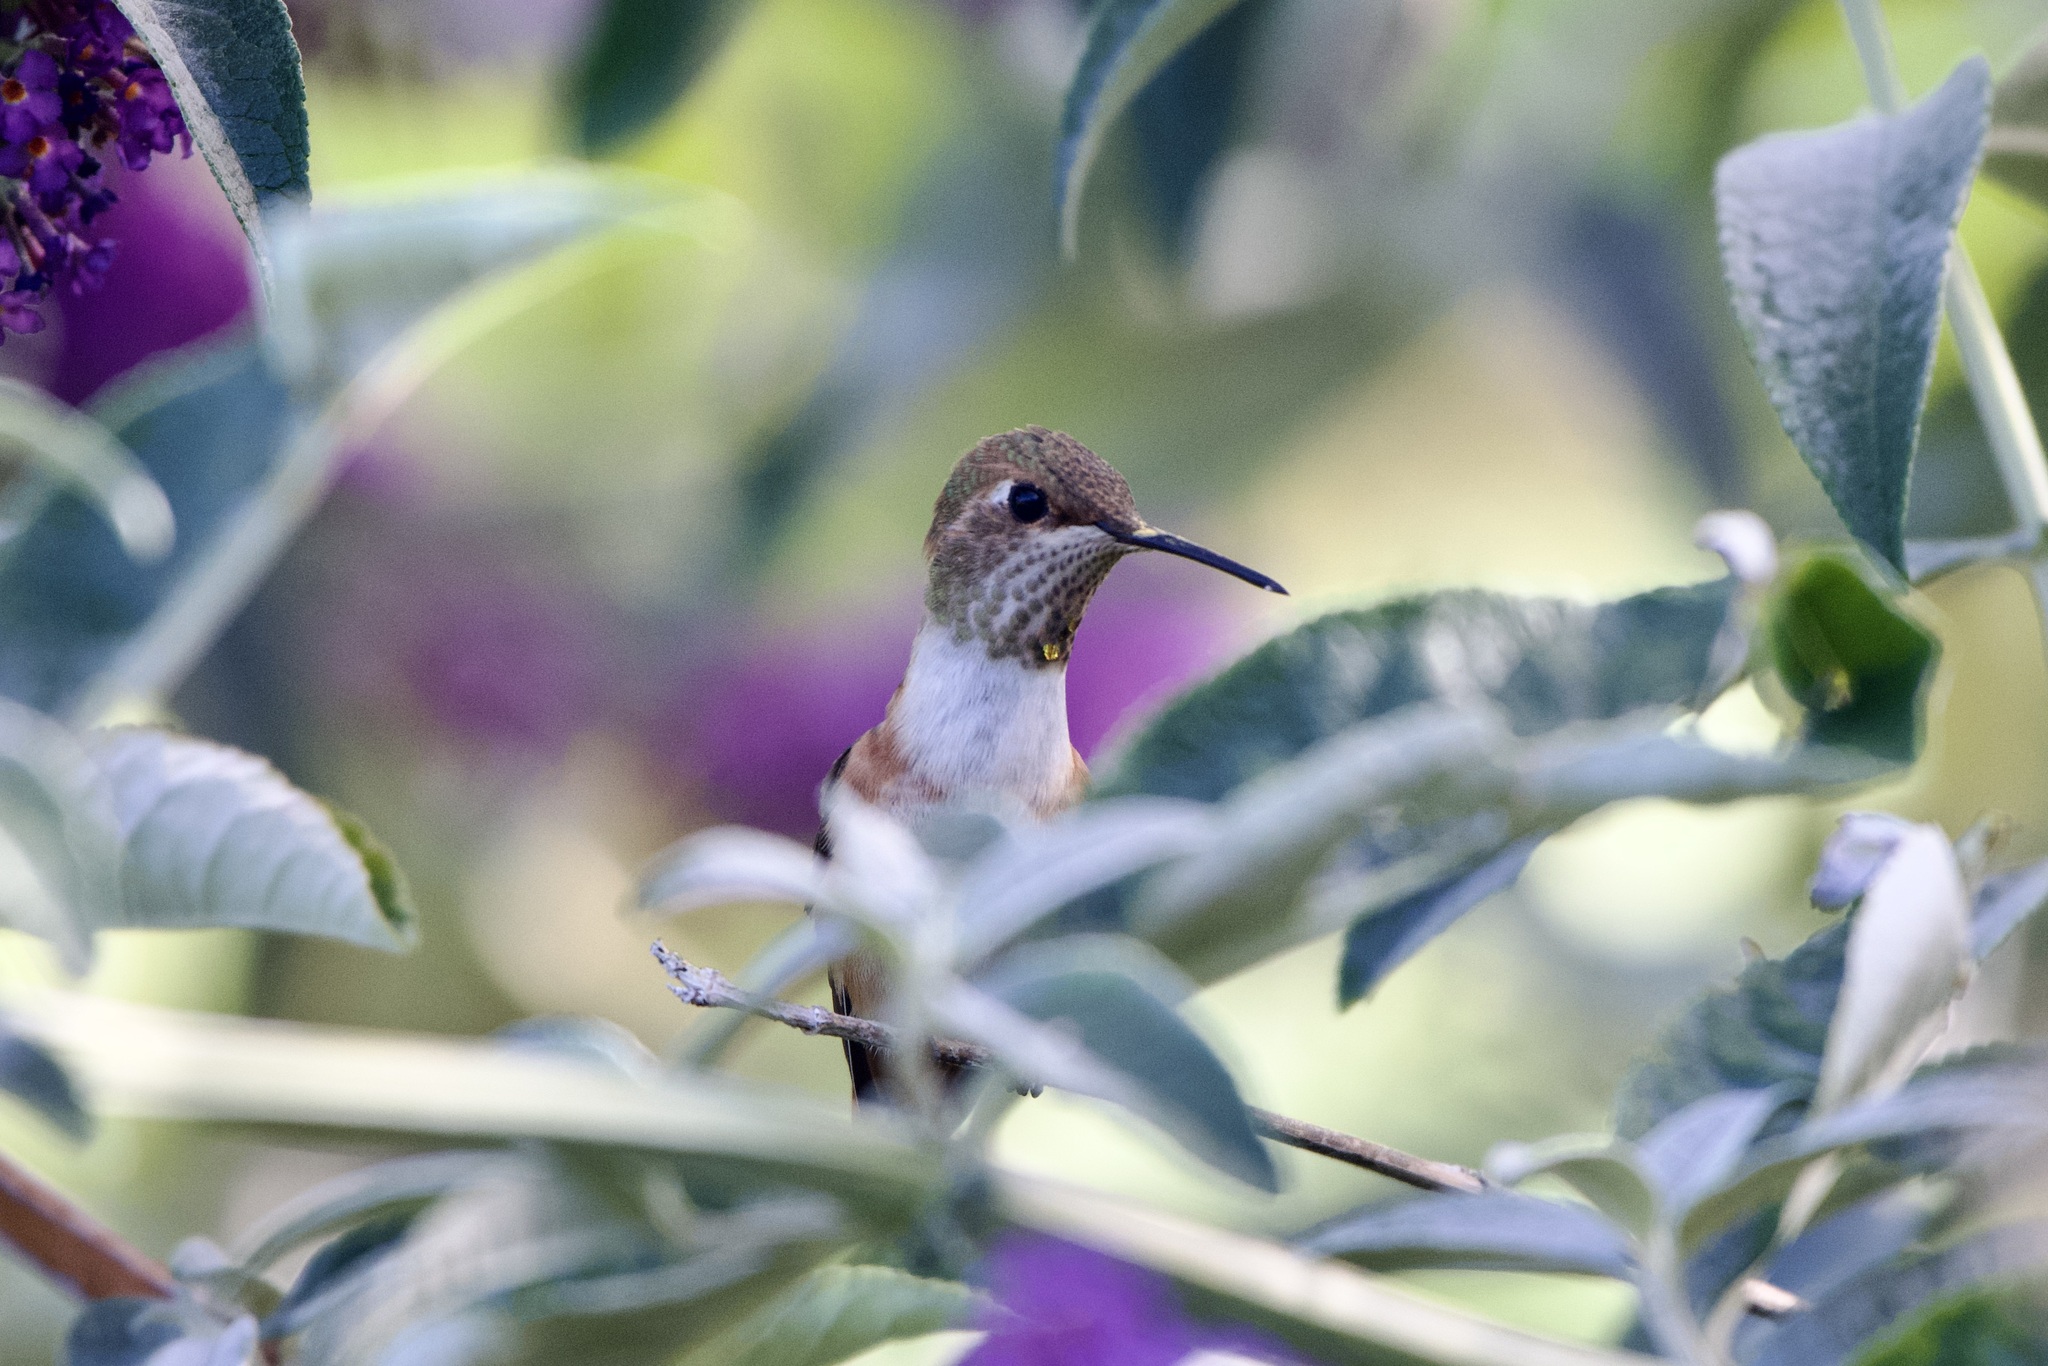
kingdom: Animalia
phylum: Chordata
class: Aves
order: Apodiformes
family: Trochilidae
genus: Selasphorus
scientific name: Selasphorus sasin
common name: Allen's hummingbird
